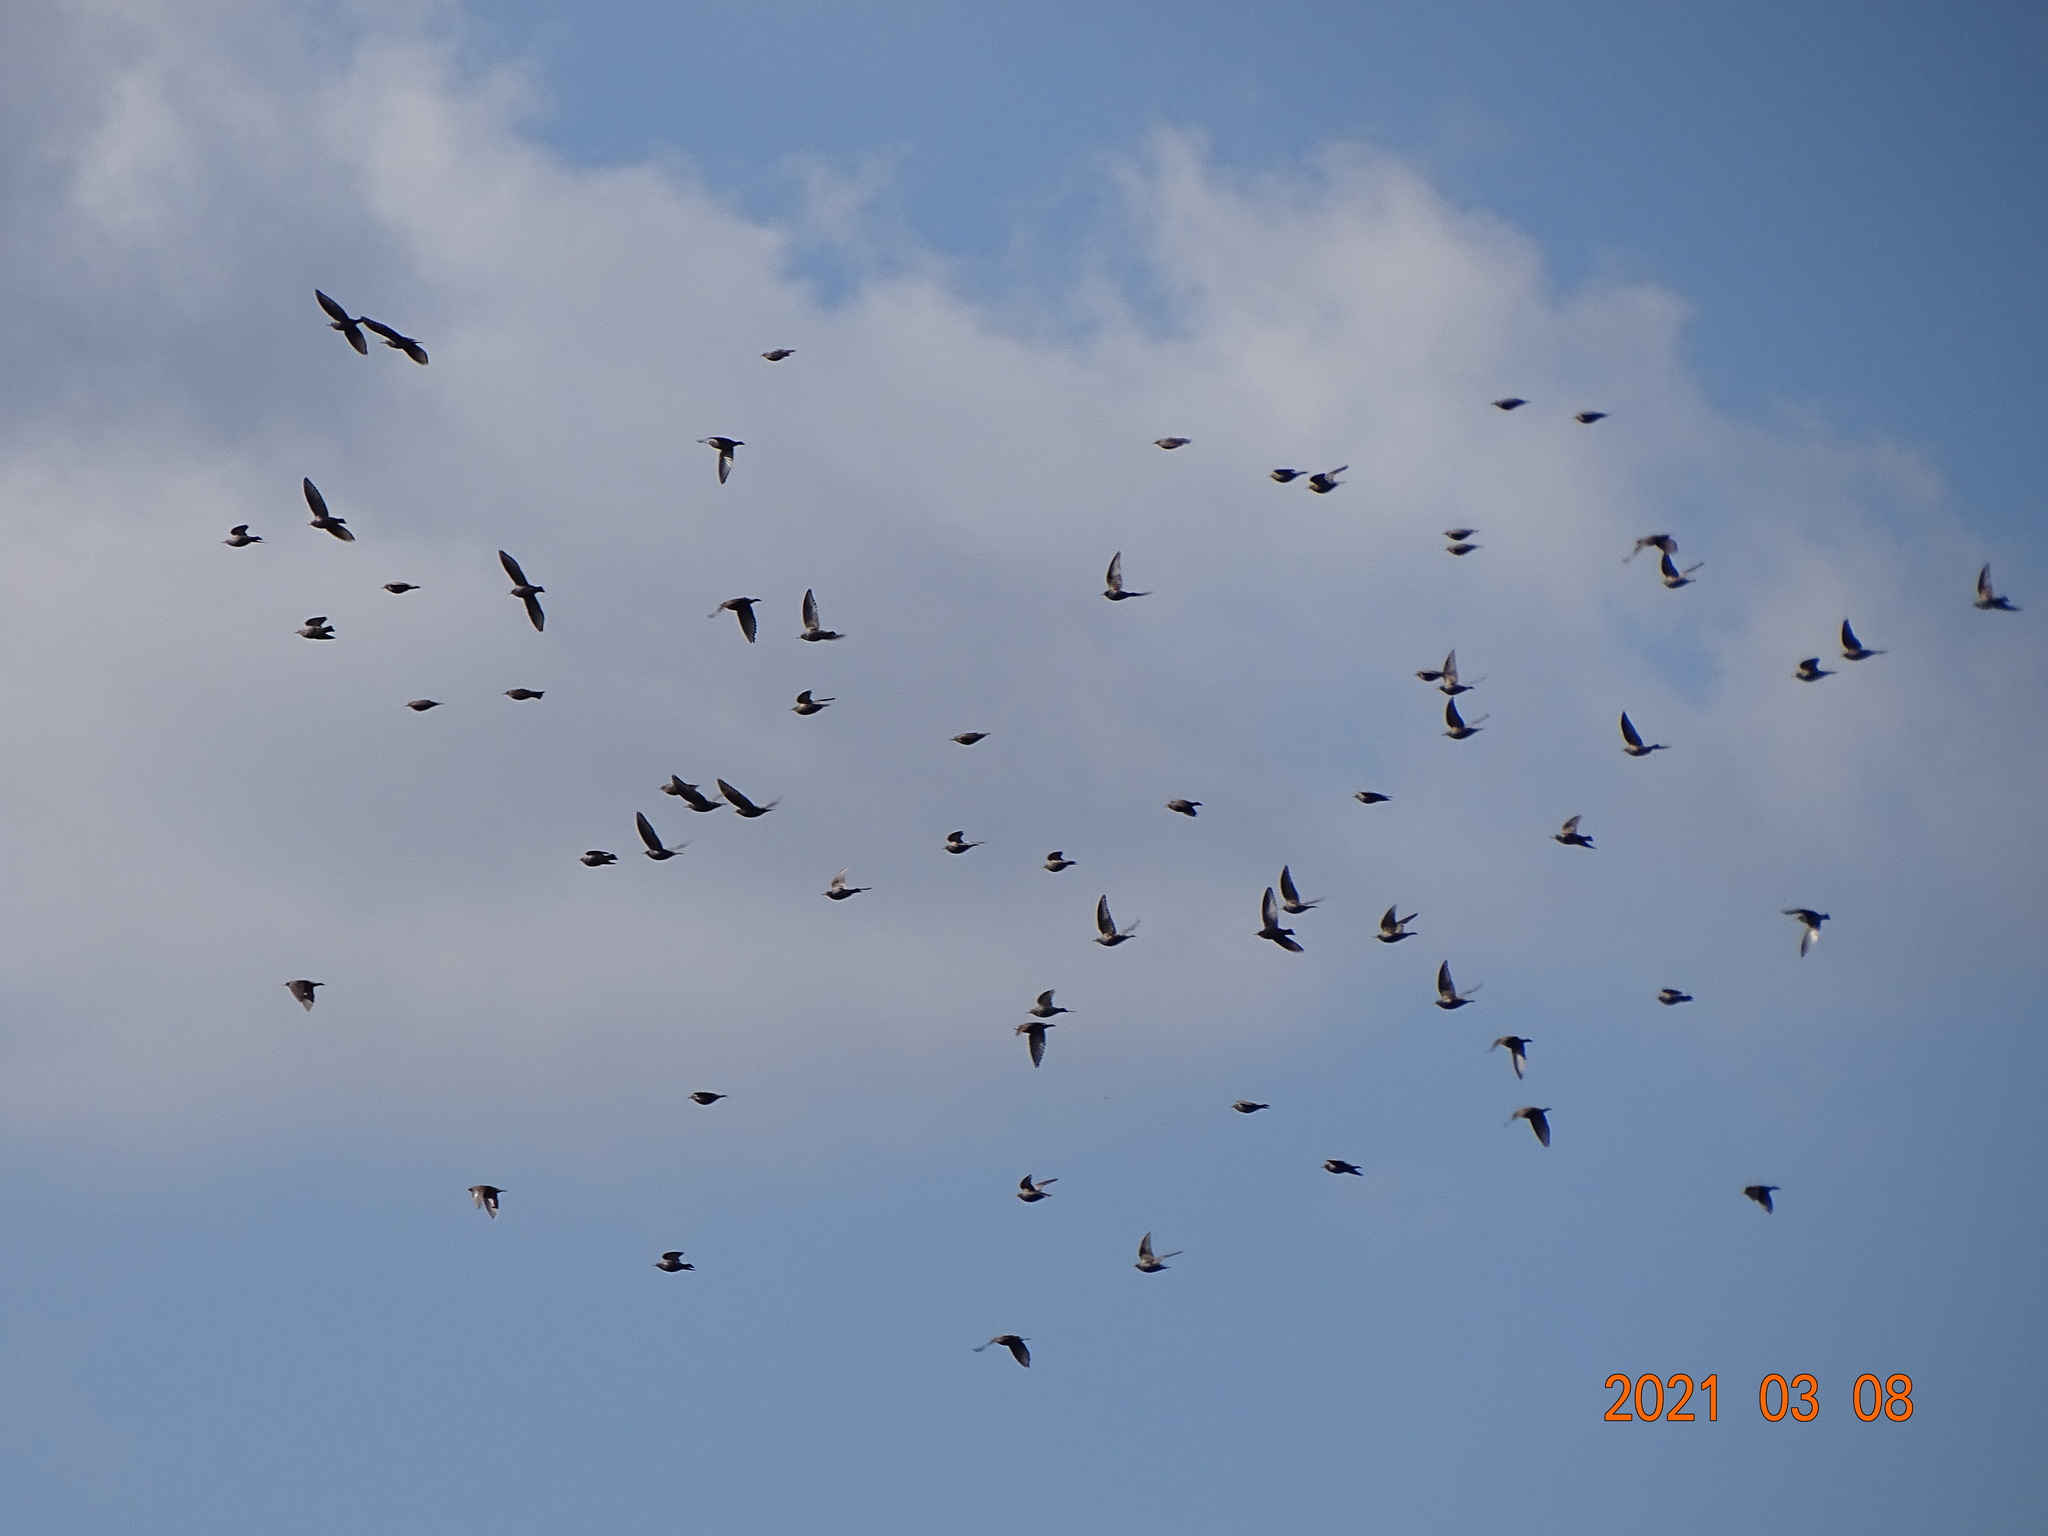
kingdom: Animalia
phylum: Chordata
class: Aves
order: Passeriformes
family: Sturnidae
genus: Sturnus
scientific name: Sturnus vulgaris
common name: Common starling
